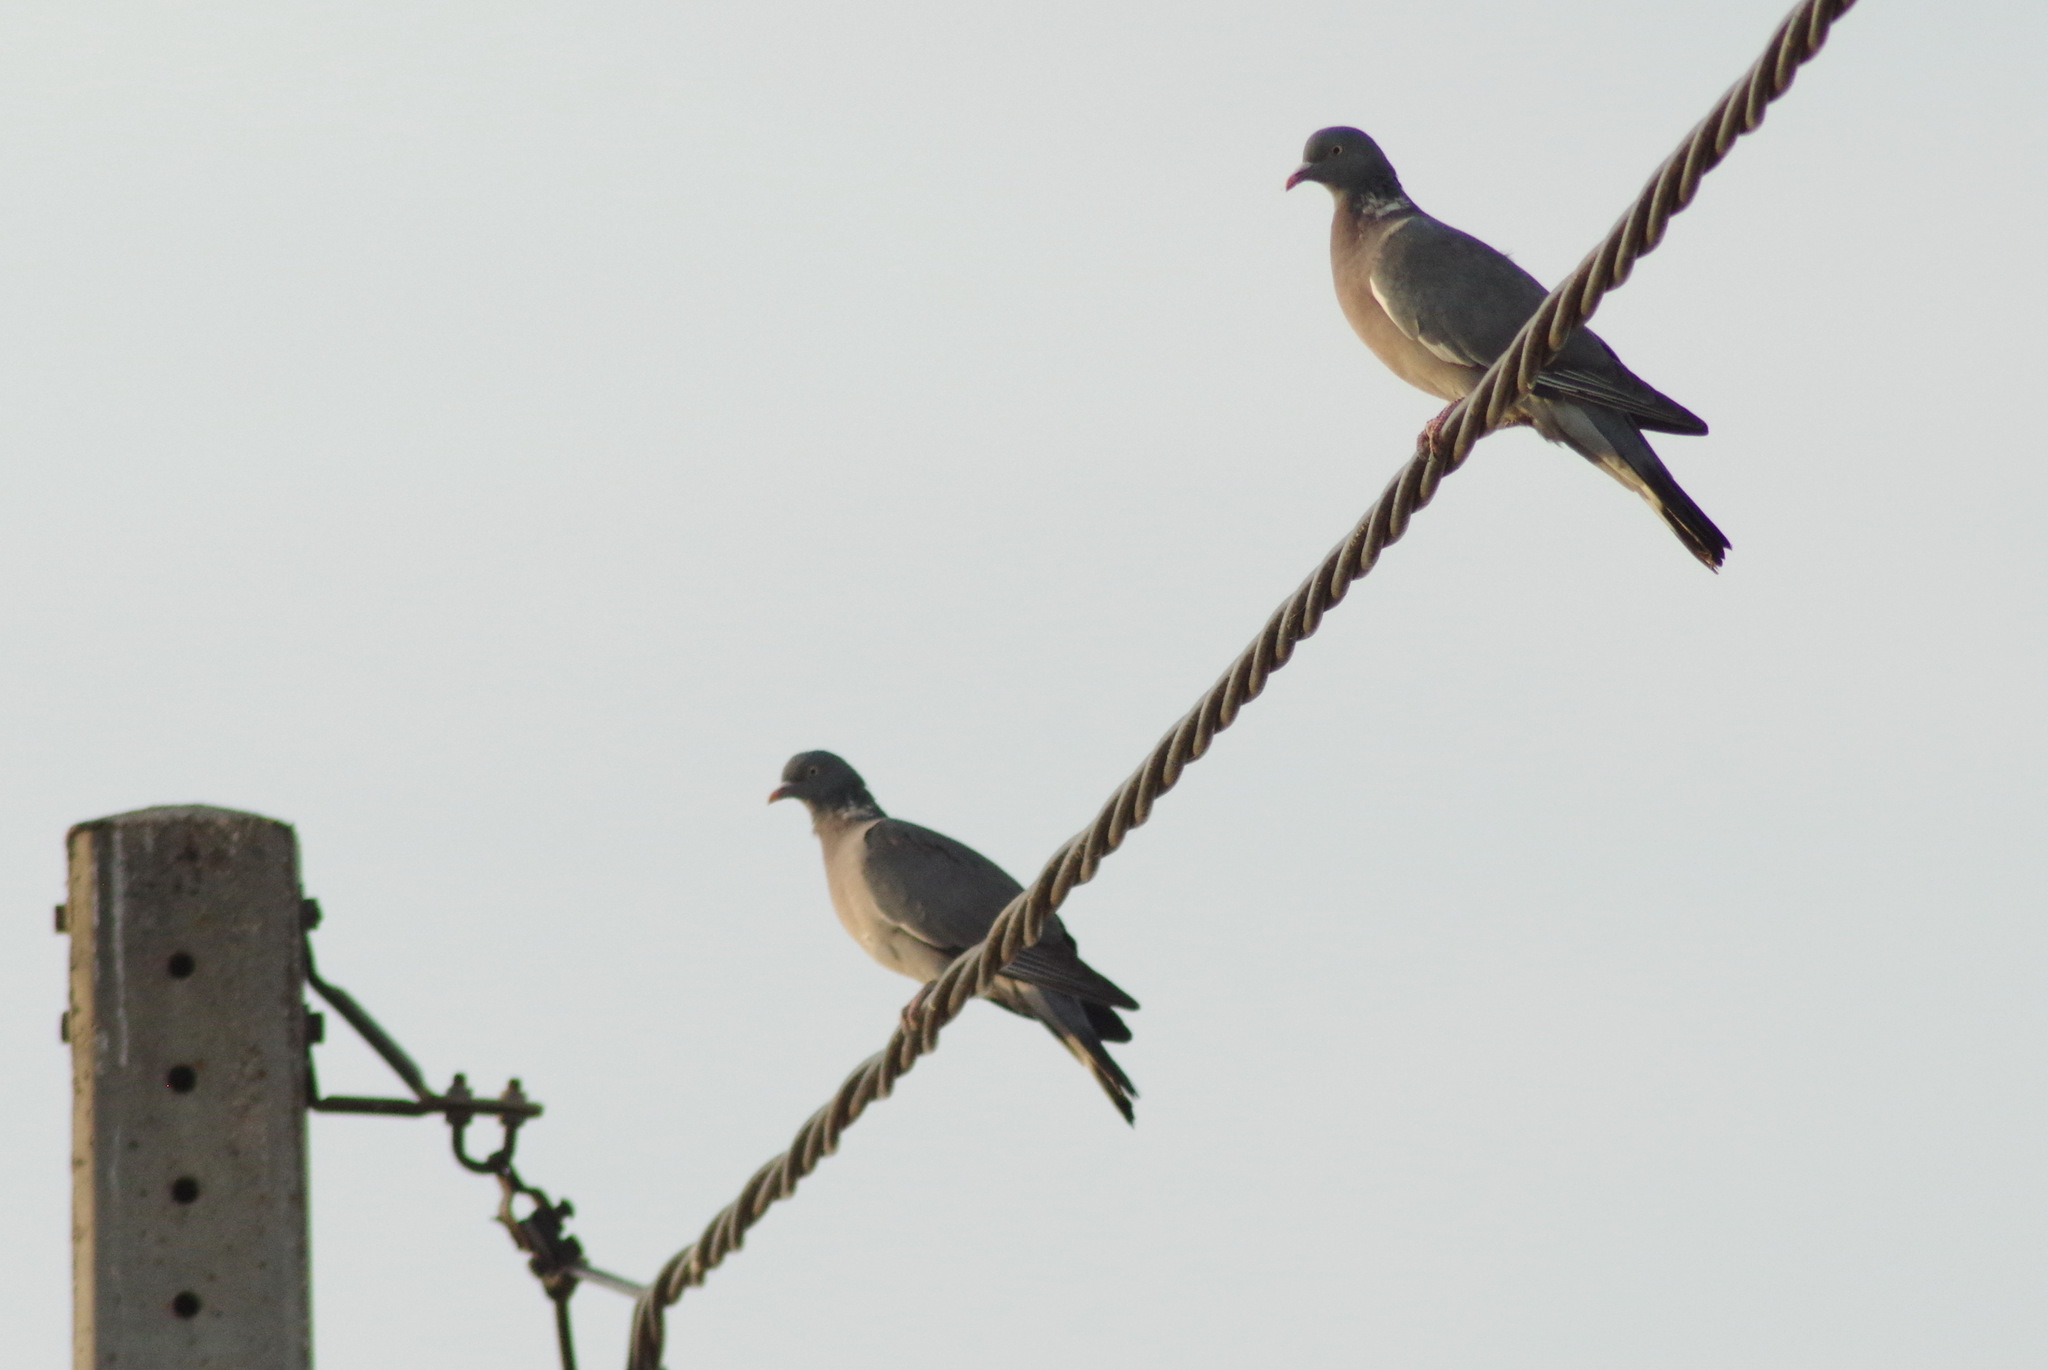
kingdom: Animalia
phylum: Chordata
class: Aves
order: Columbiformes
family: Columbidae
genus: Columba
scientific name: Columba palumbus
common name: Common wood pigeon
